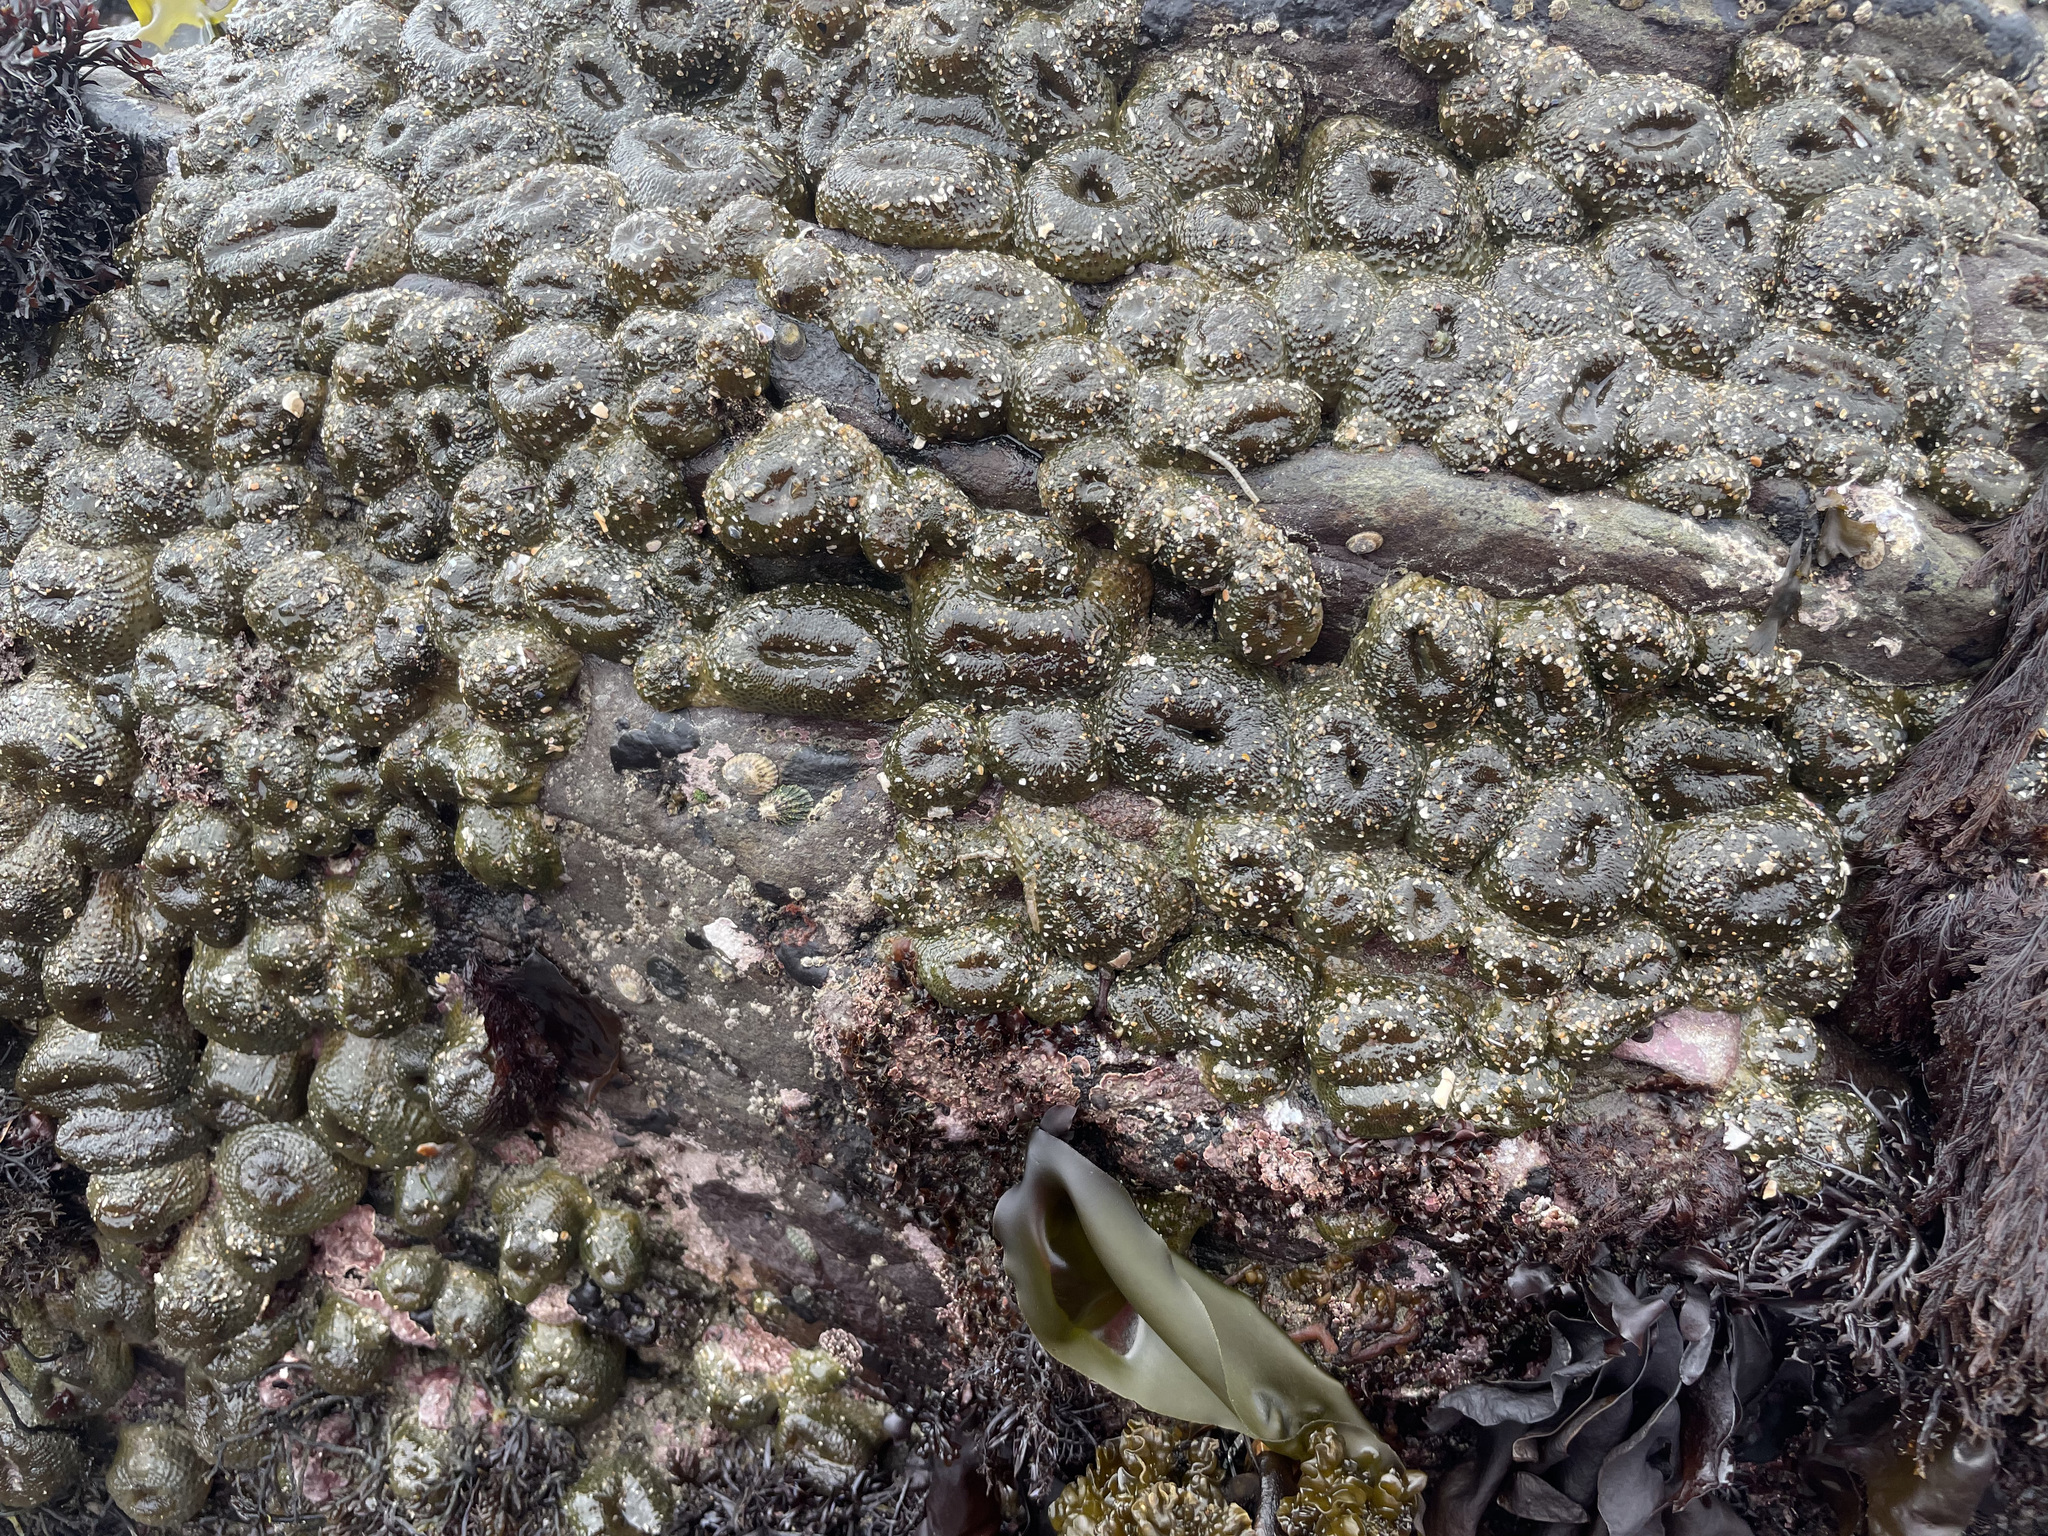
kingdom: Animalia
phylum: Cnidaria
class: Anthozoa
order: Actiniaria
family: Actiniidae
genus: Anthopleura
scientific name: Anthopleura elegantissima
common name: Clonal anemone
